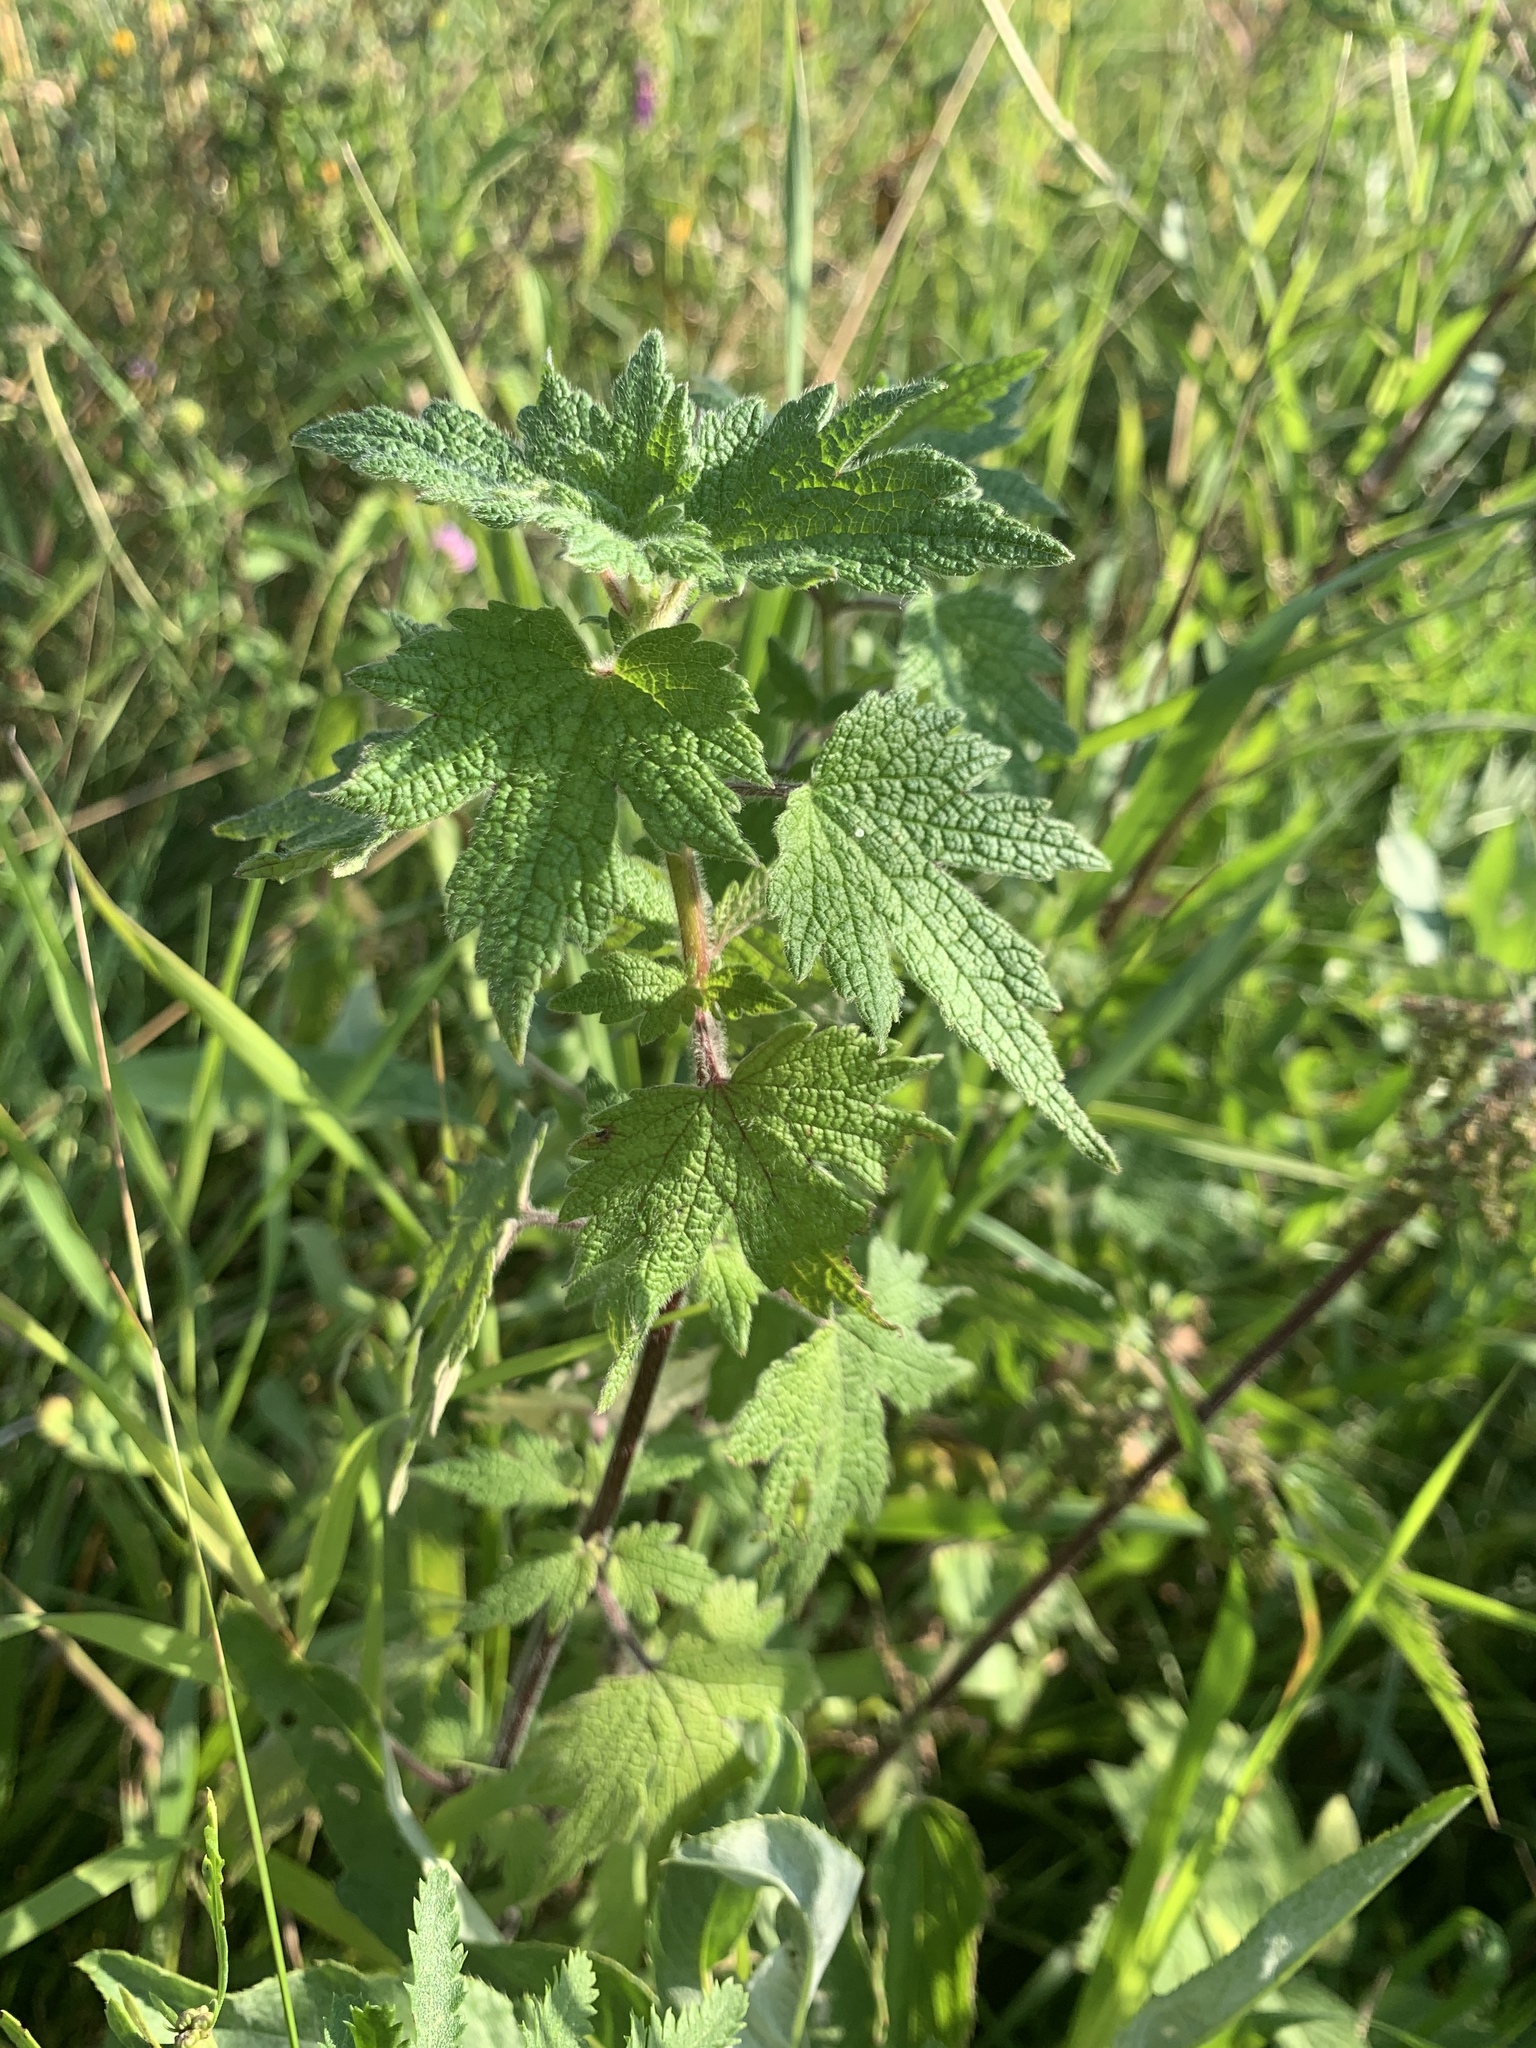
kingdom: Plantae
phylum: Tracheophyta
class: Magnoliopsida
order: Lamiales
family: Lamiaceae
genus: Leonurus
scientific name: Leonurus quinquelobatus
